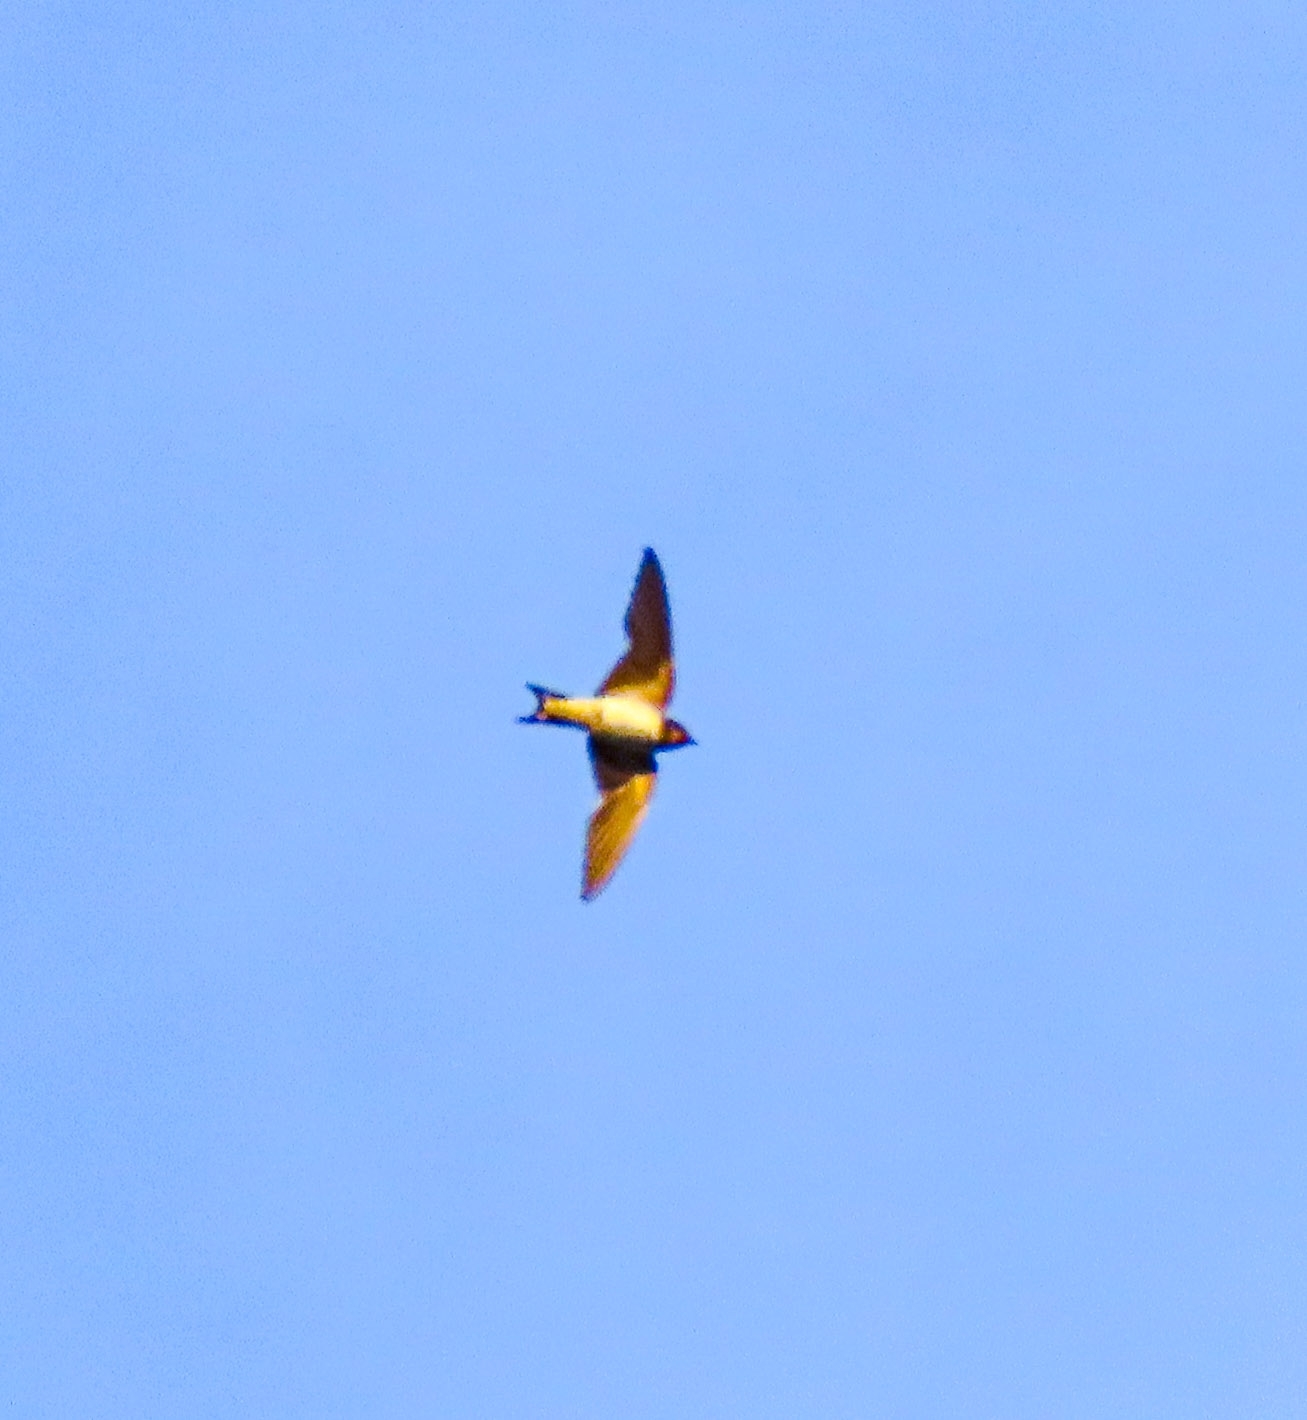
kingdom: Animalia
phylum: Chordata
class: Aves
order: Passeriformes
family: Hirundinidae
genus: Hirundo
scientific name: Hirundo rustica
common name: Barn swallow
